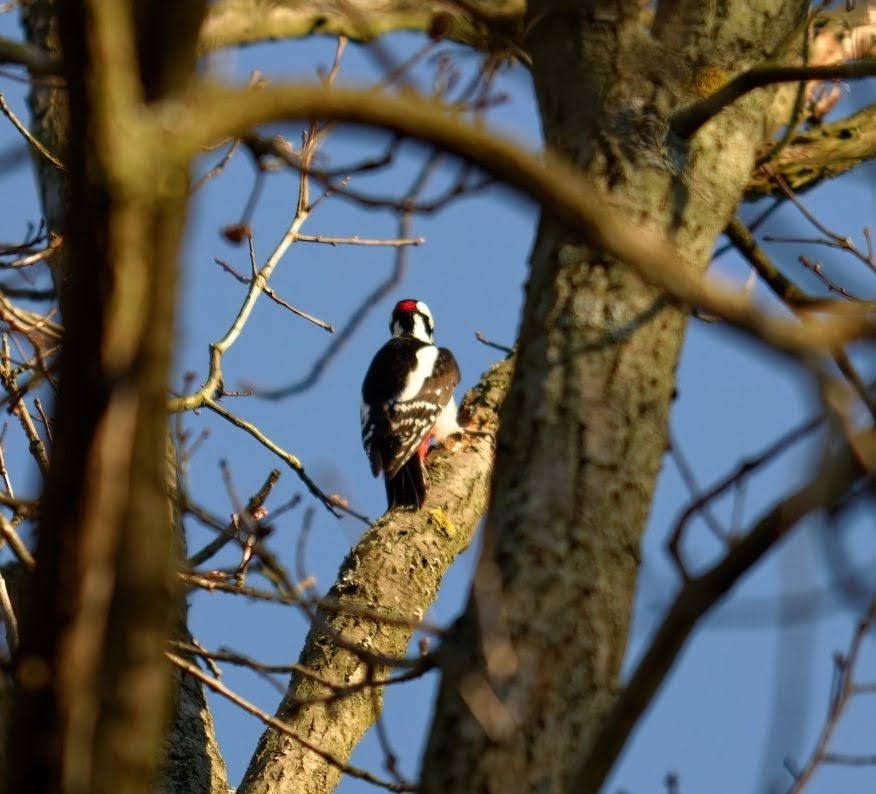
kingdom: Animalia
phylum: Chordata
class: Aves
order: Piciformes
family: Picidae
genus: Dendrocopos
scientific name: Dendrocopos major
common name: Great spotted woodpecker
